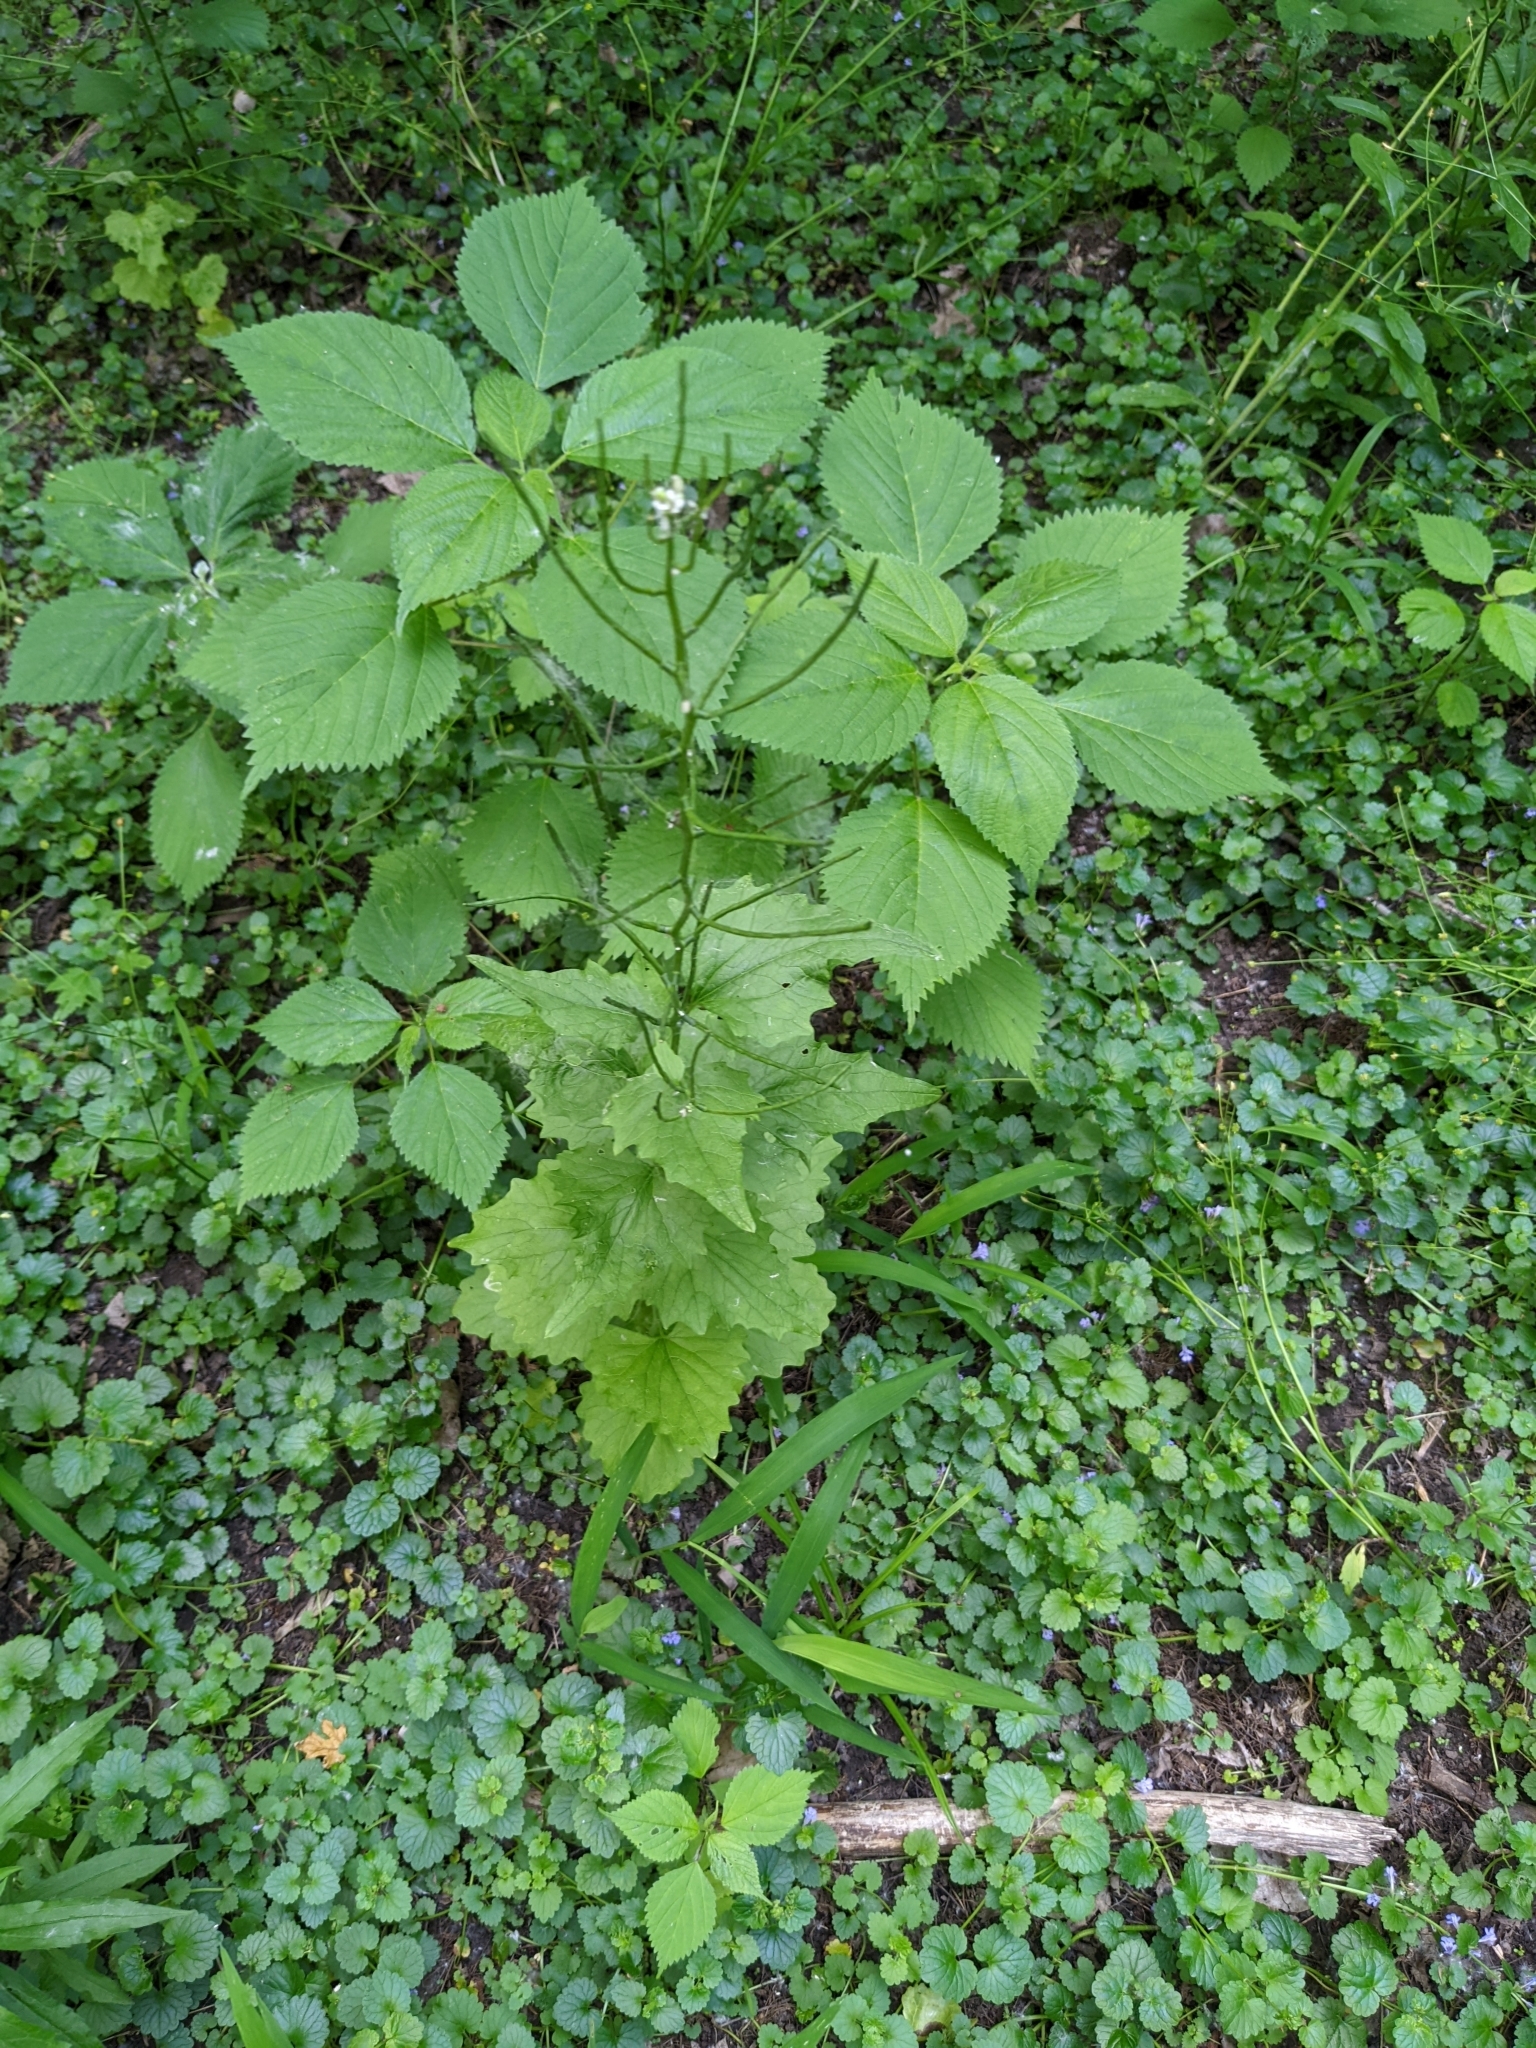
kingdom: Plantae
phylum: Tracheophyta
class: Magnoliopsida
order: Brassicales
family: Brassicaceae
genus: Alliaria
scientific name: Alliaria petiolata
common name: Garlic mustard
